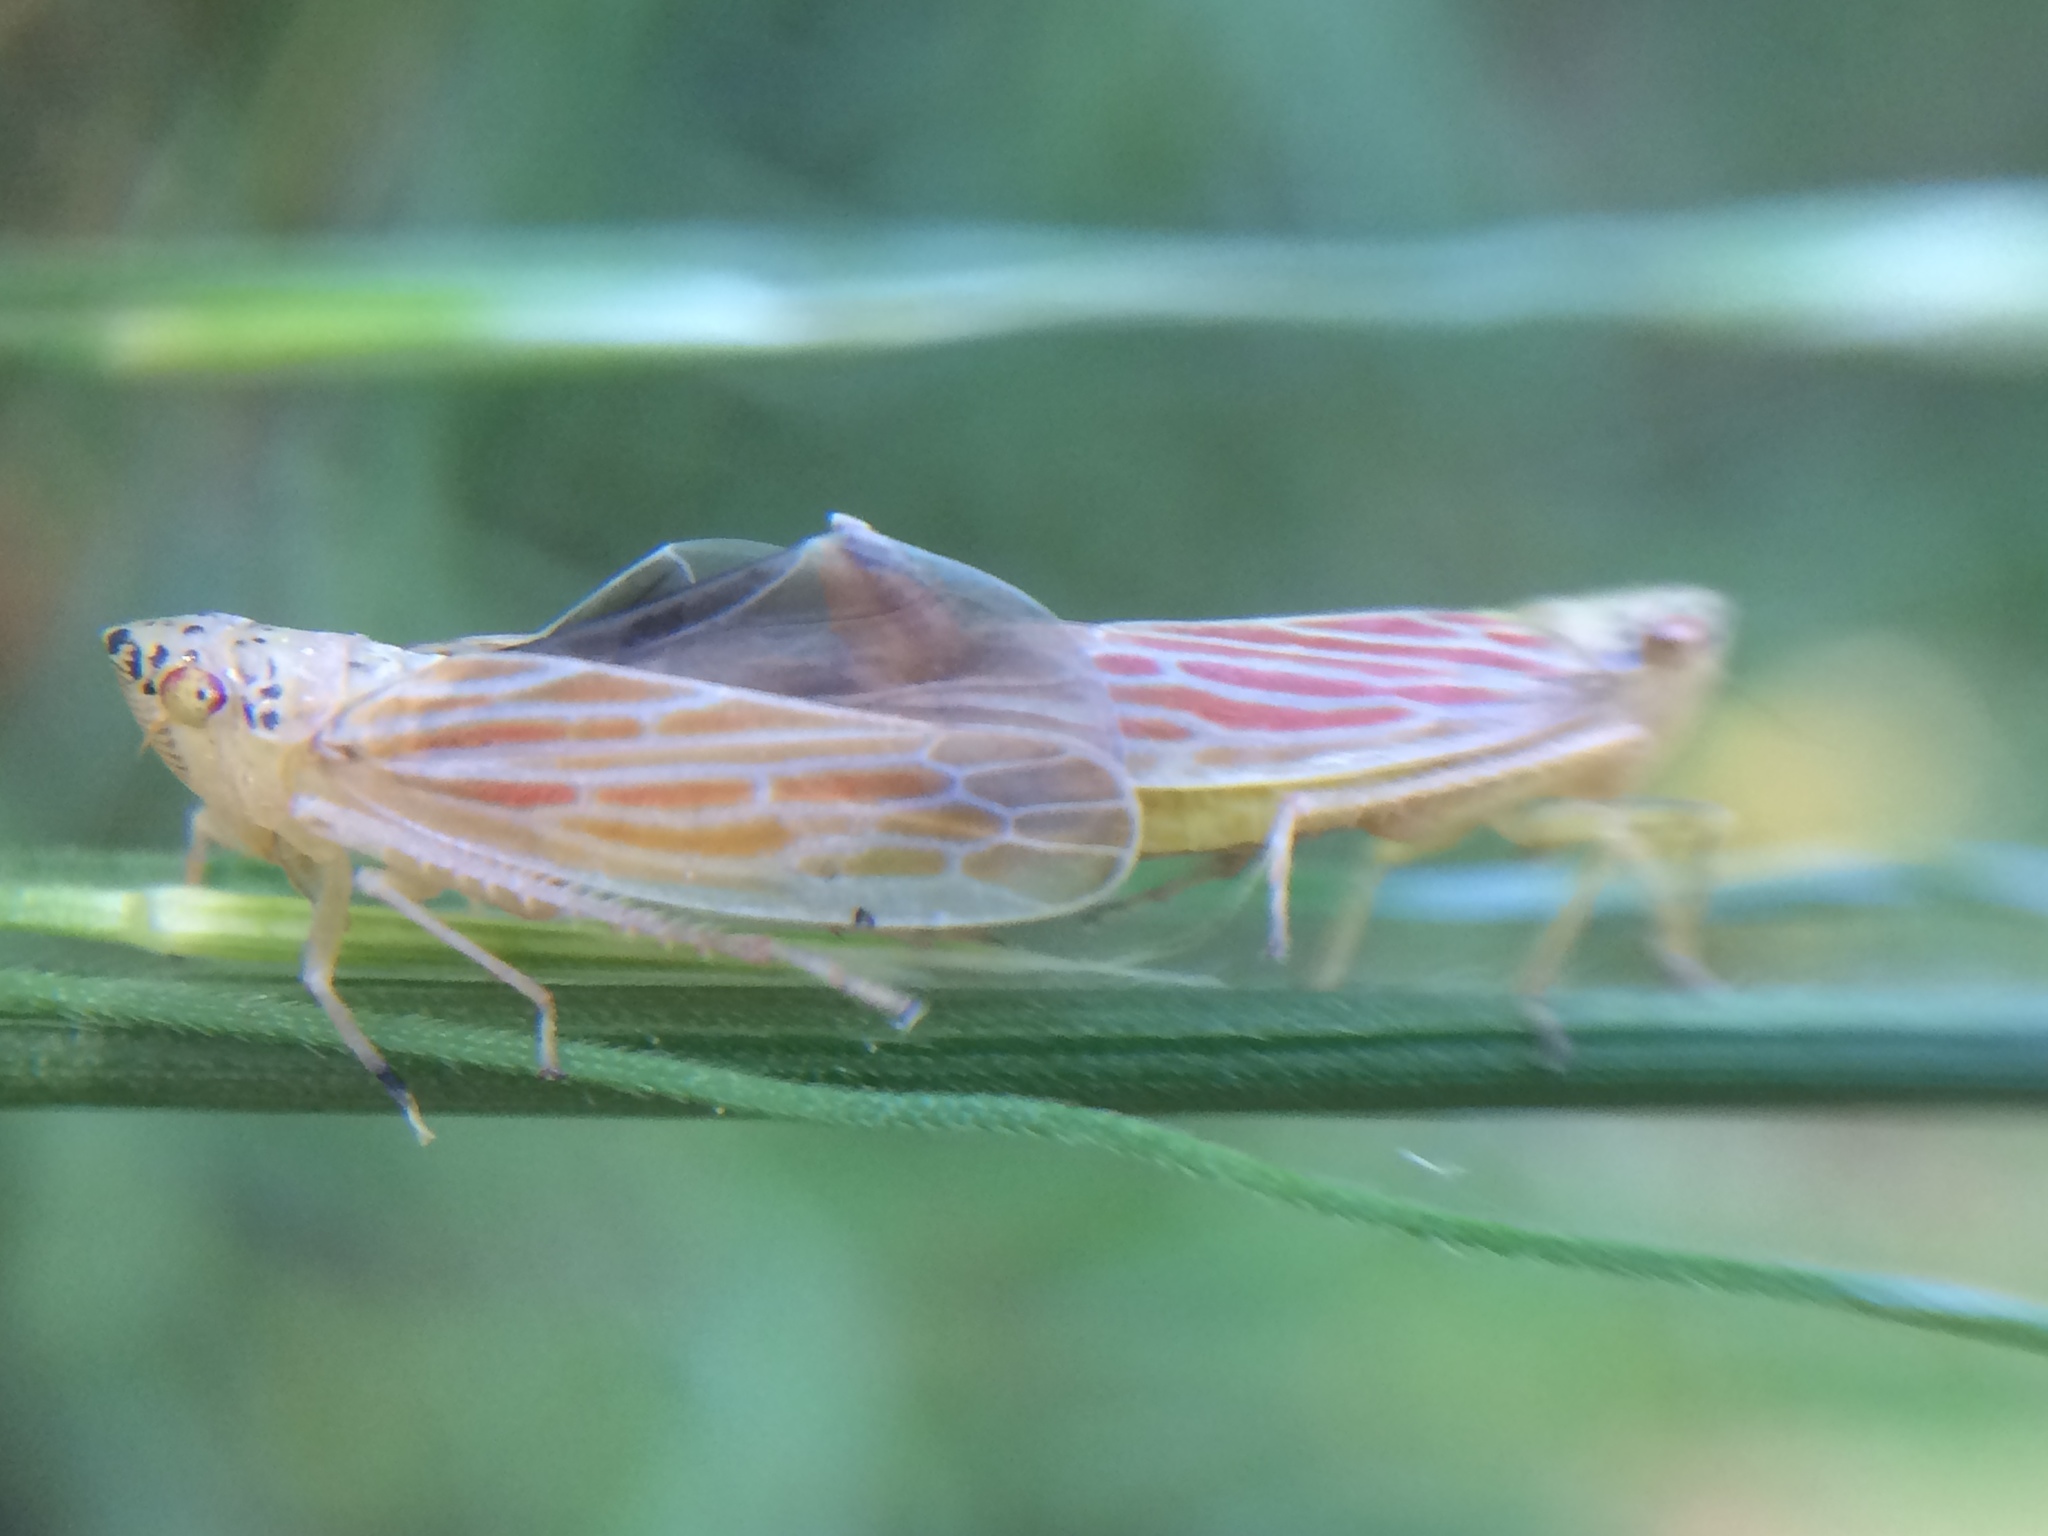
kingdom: Animalia
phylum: Arthropoda
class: Insecta
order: Hemiptera
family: Cicadellidae
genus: Pagaronia
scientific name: Pagaronia triunata
